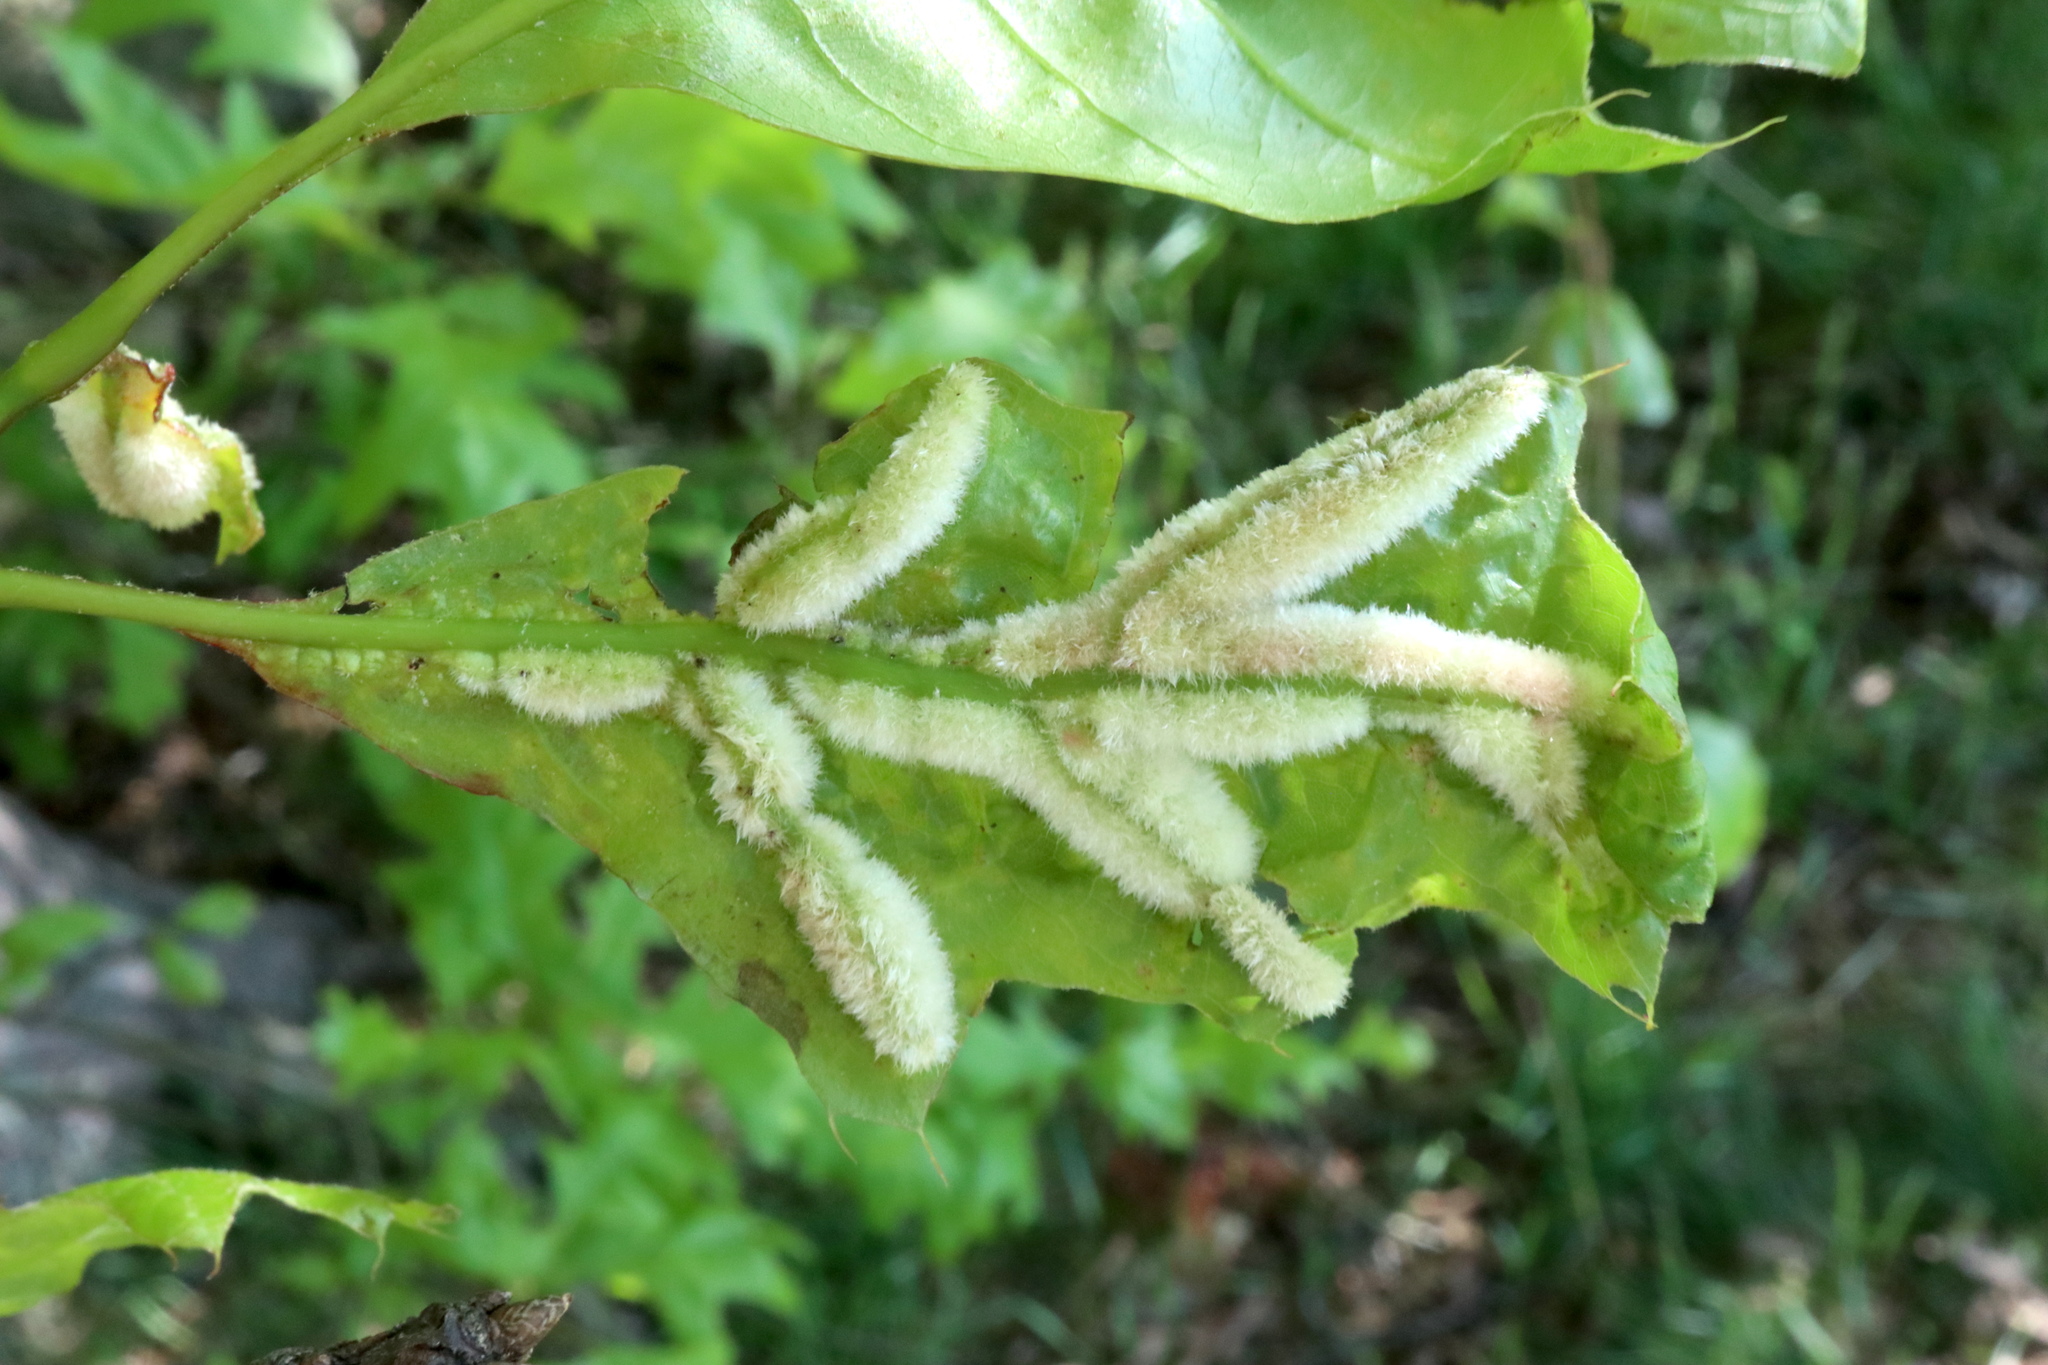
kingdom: Animalia
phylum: Arthropoda
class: Insecta
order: Diptera
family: Cecidomyiidae
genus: Macrodiplosis
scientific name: Macrodiplosis niveipila
